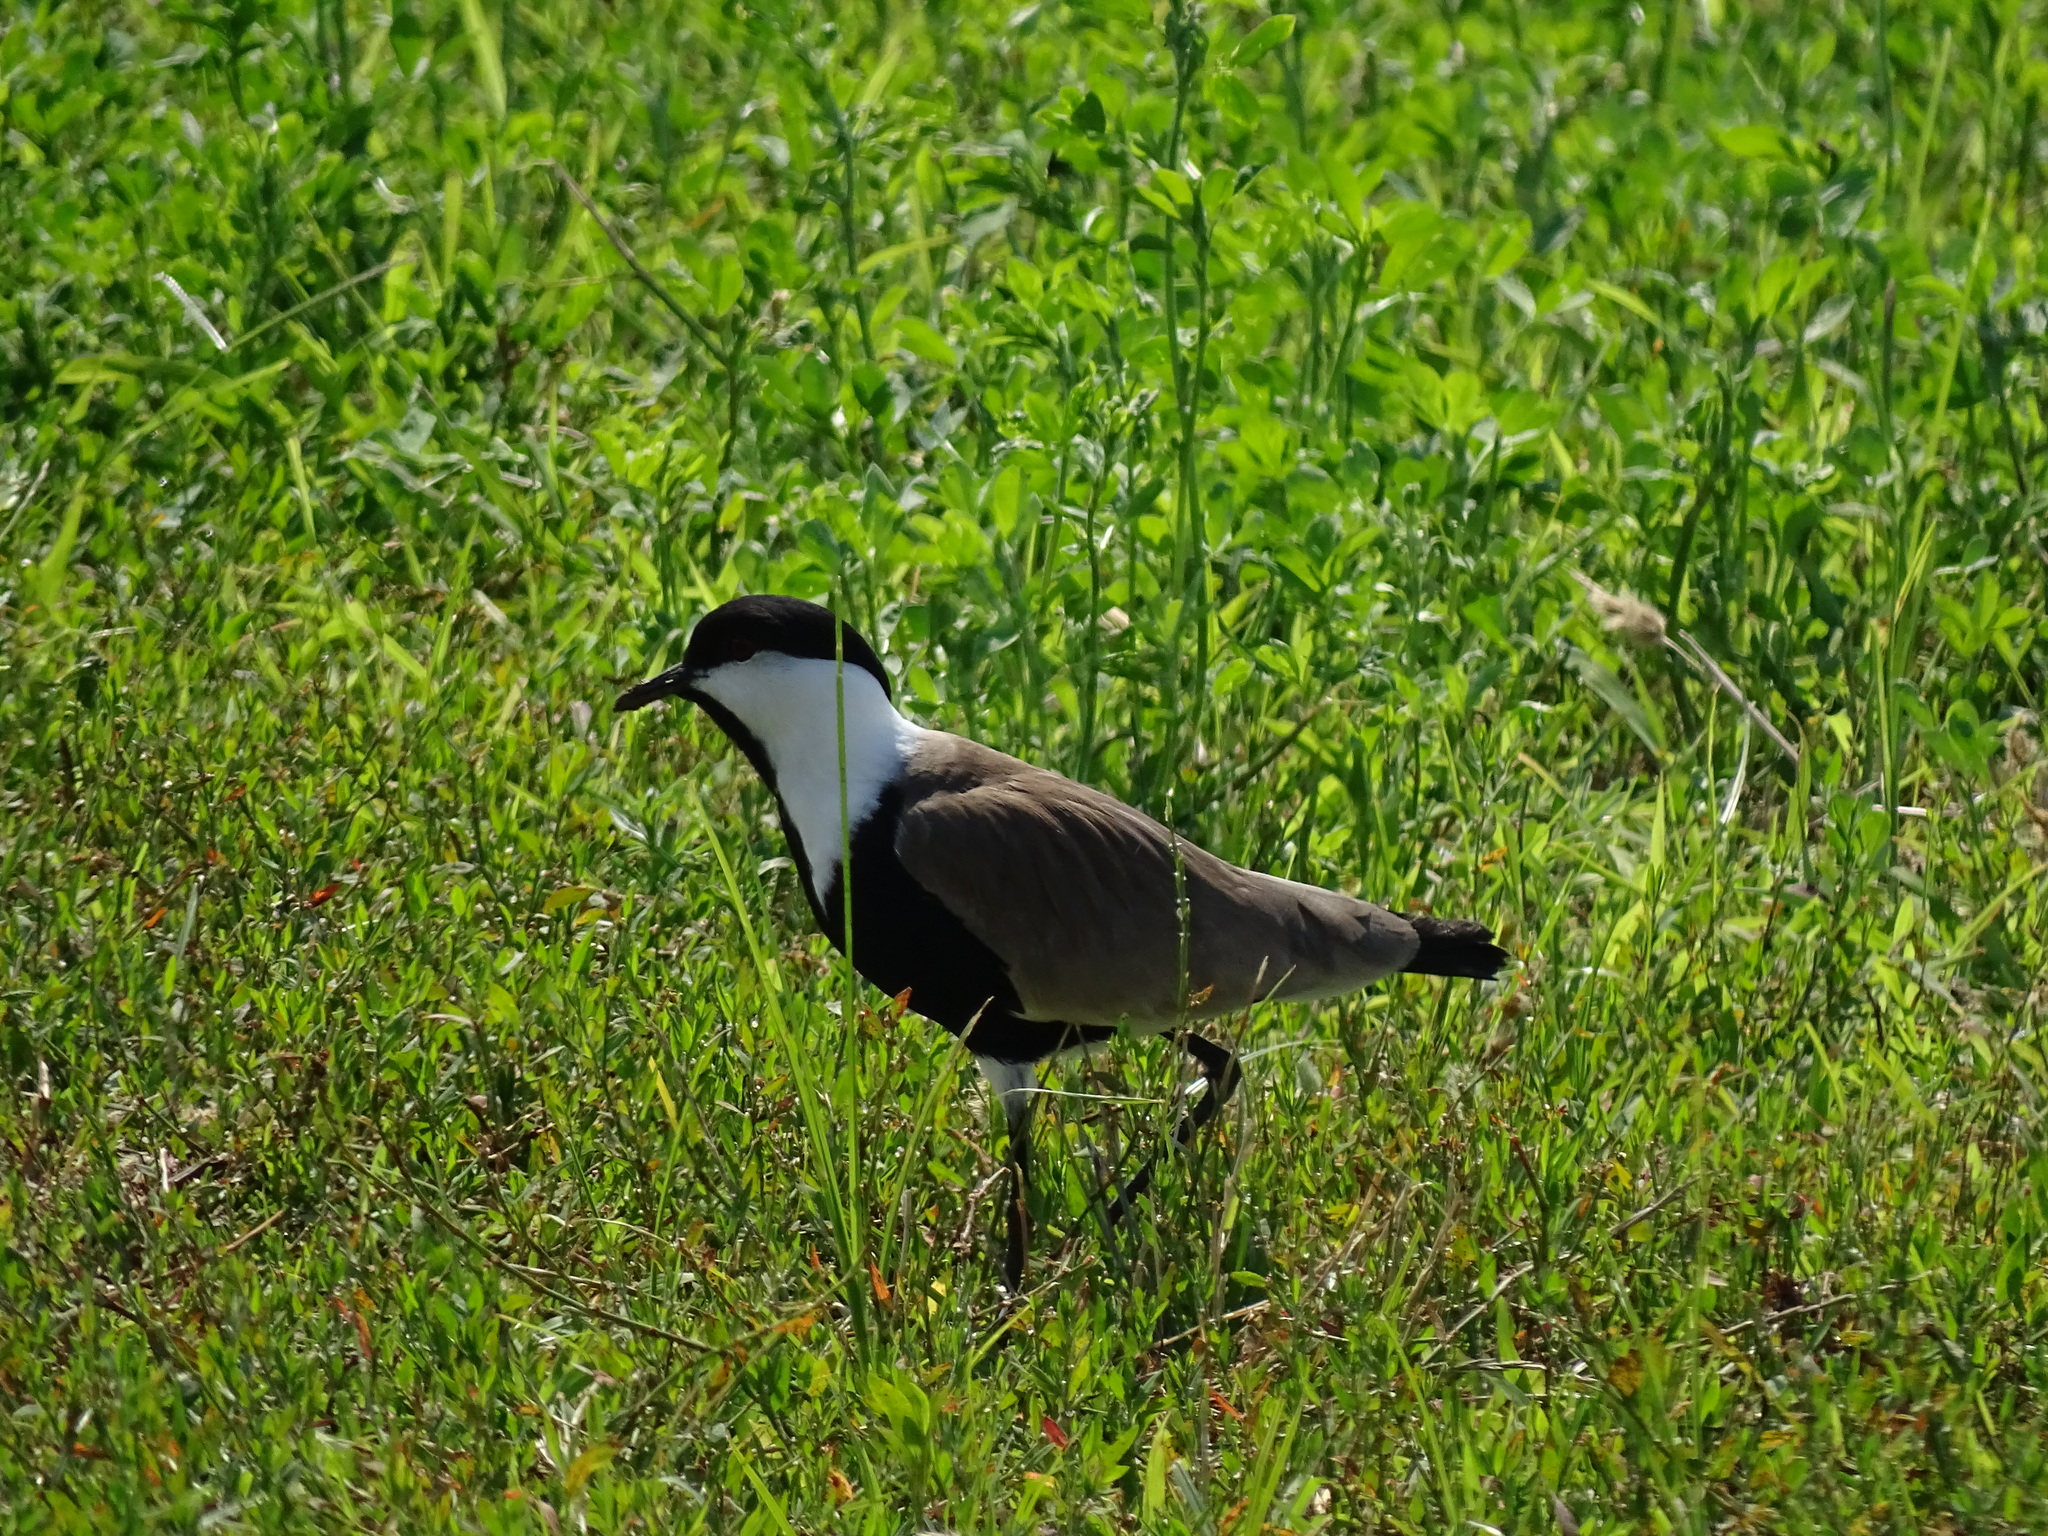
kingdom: Animalia
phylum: Chordata
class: Aves
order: Charadriiformes
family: Charadriidae
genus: Vanellus
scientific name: Vanellus spinosus
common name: Spur-winged lapwing
